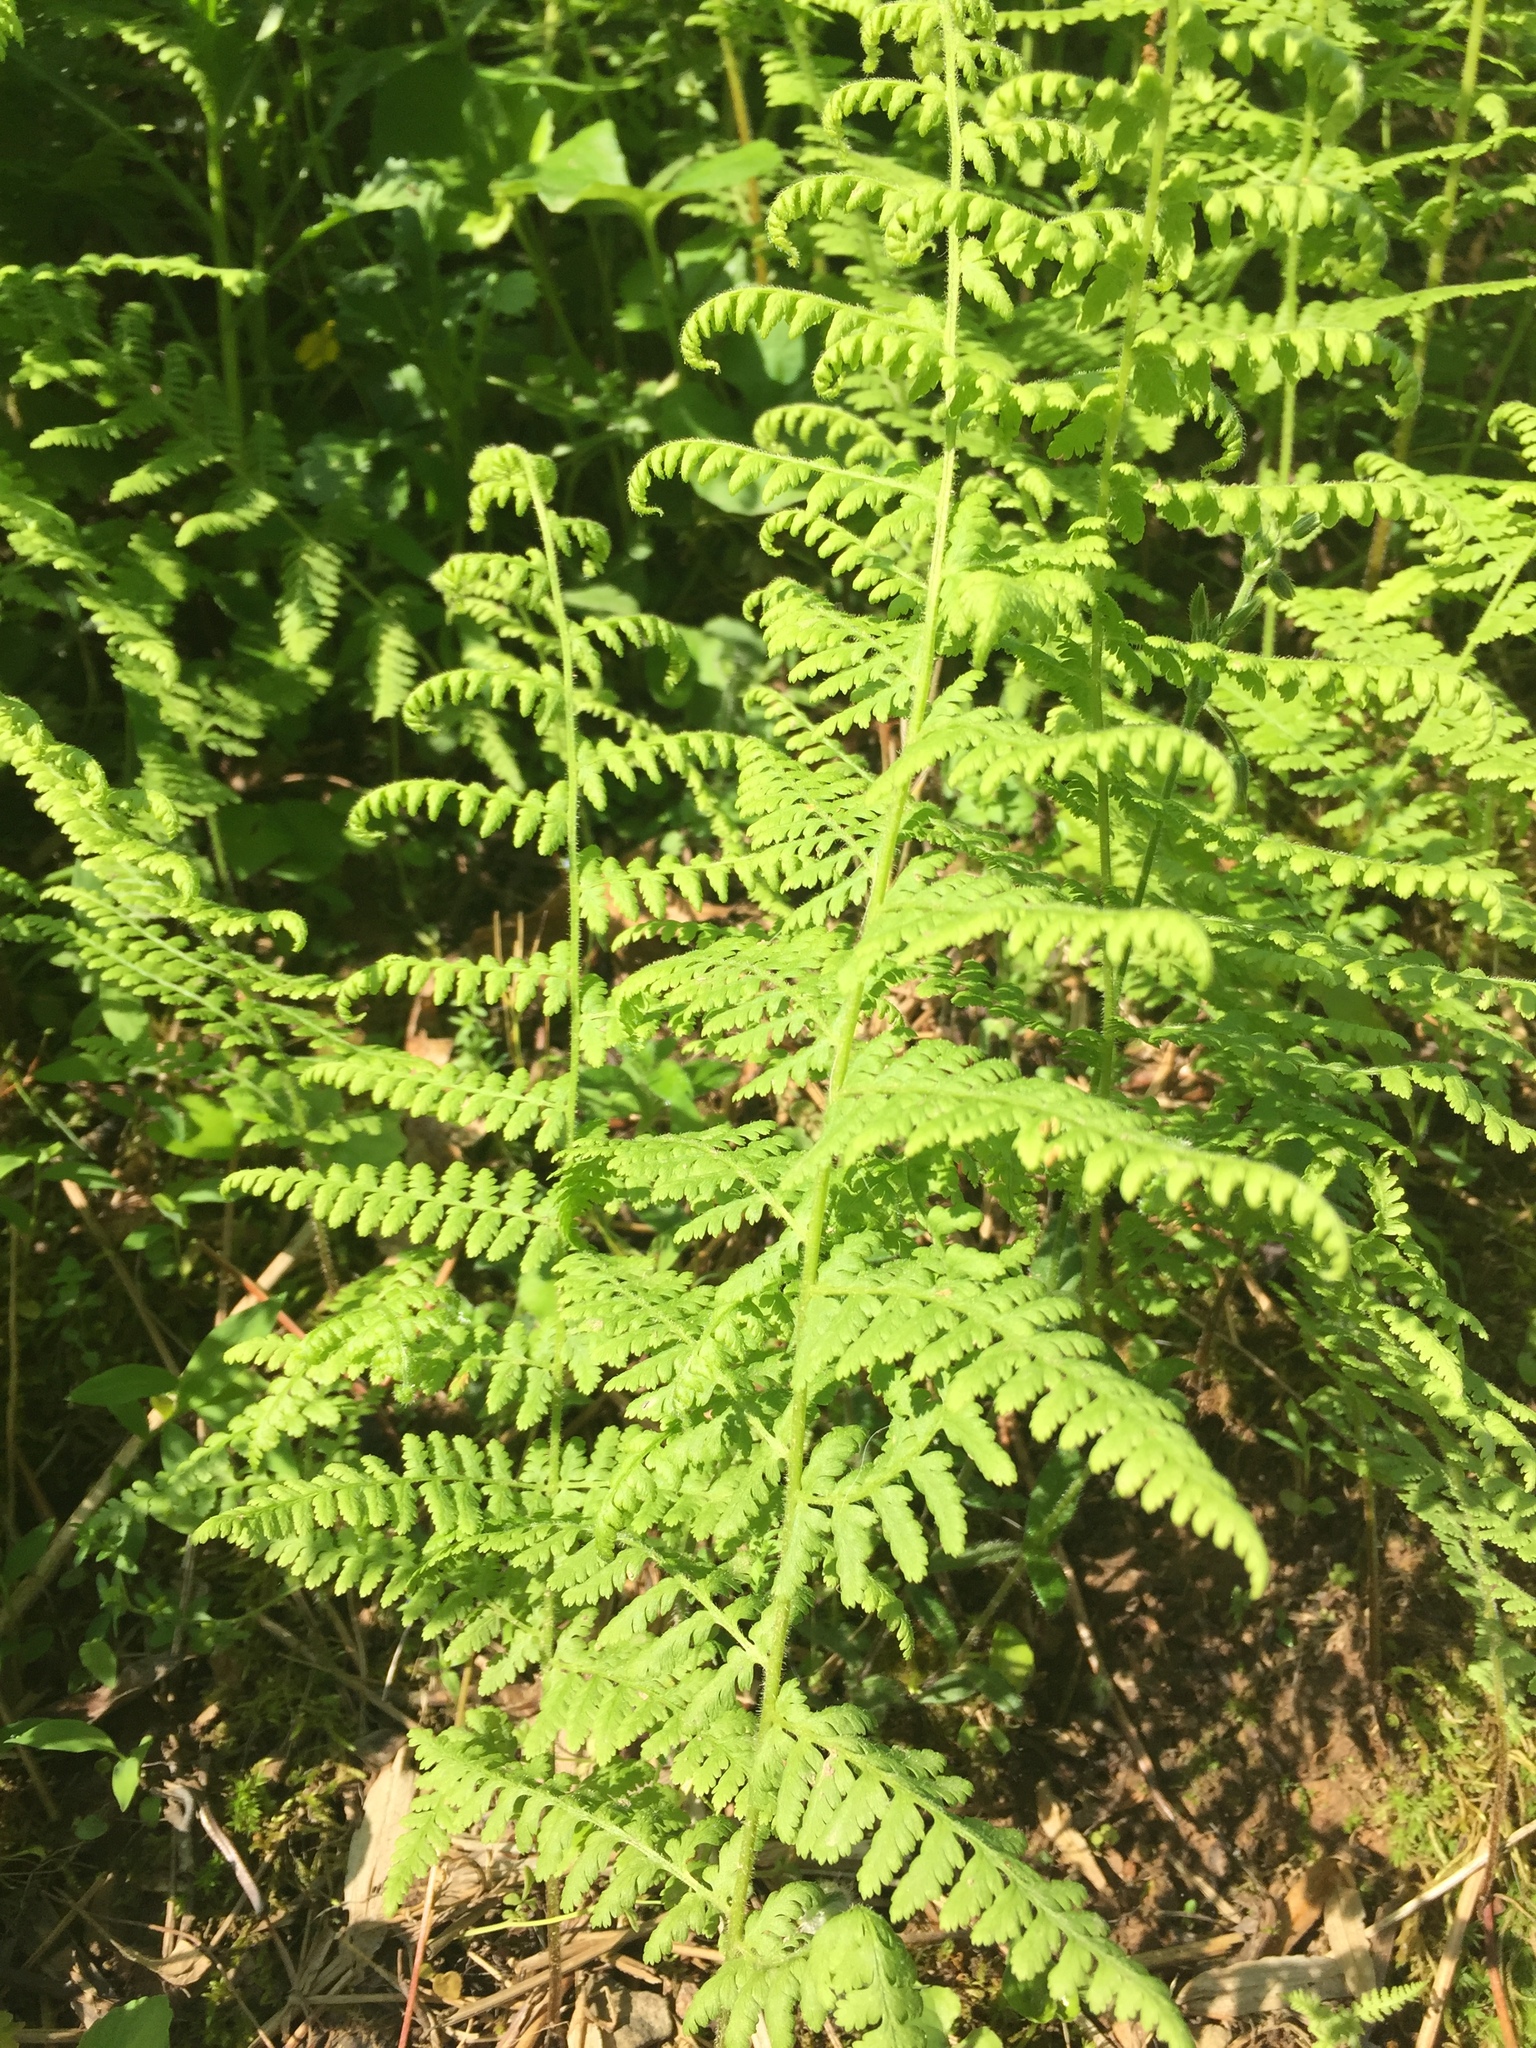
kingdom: Plantae
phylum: Tracheophyta
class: Polypodiopsida
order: Polypodiales
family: Dennstaedtiaceae
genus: Sitobolium
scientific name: Sitobolium punctilobum
